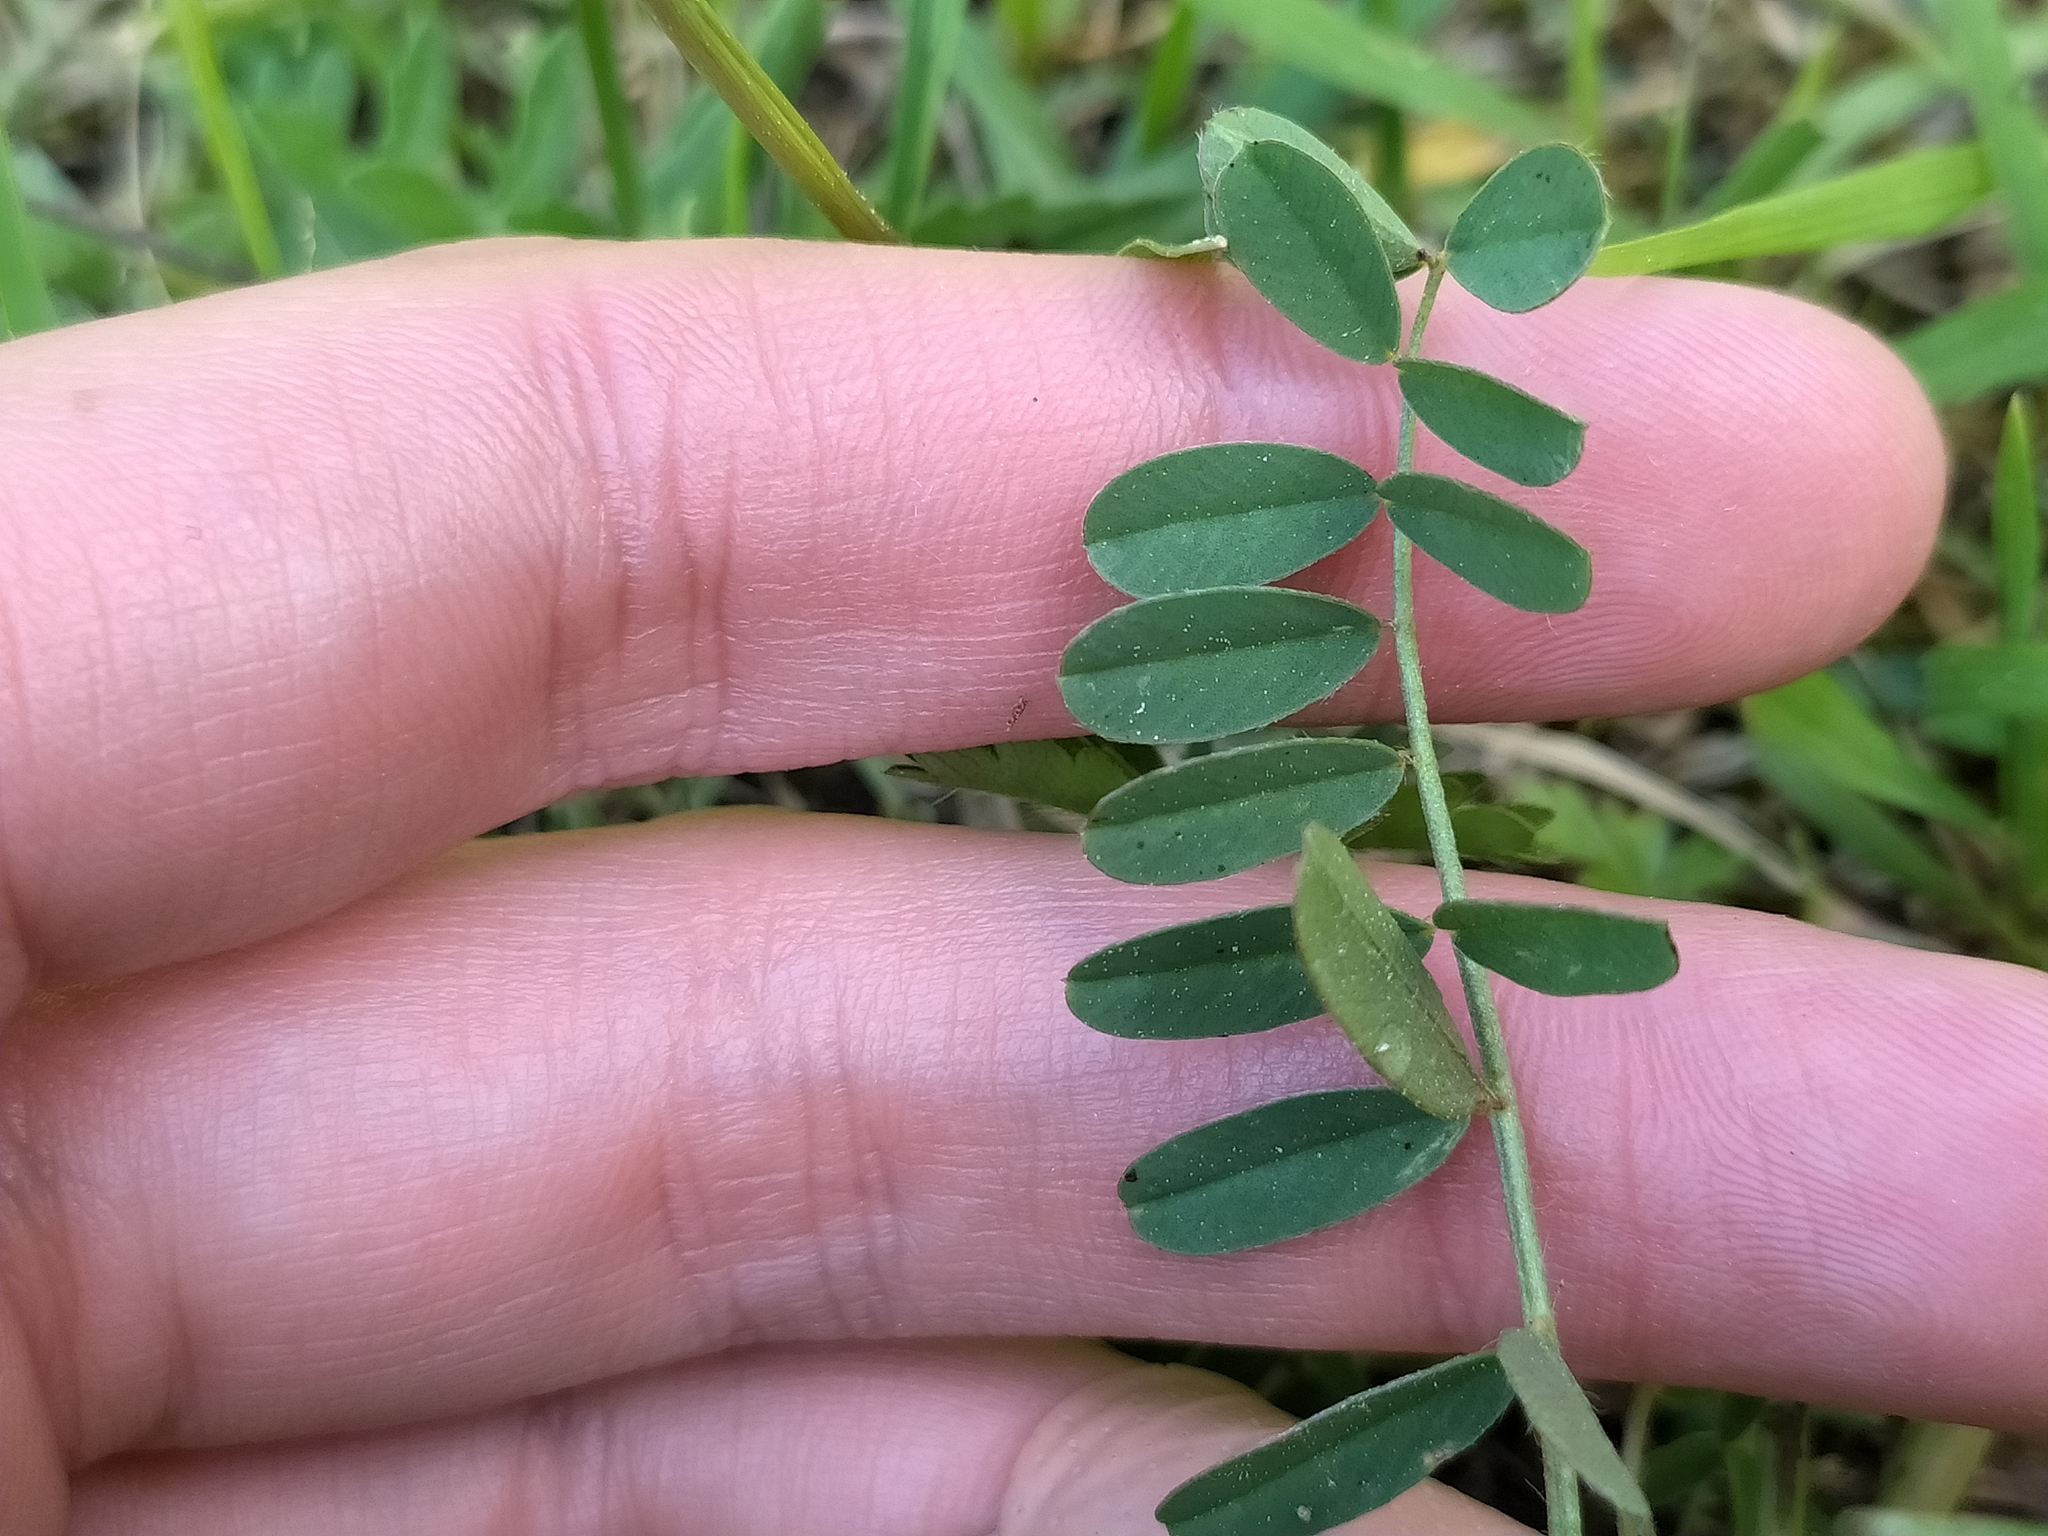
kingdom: Plantae
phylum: Tracheophyta
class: Magnoliopsida
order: Fabales
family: Fabaceae
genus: Onobrychis
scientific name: Onobrychis viciifolia
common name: Sainfoin
